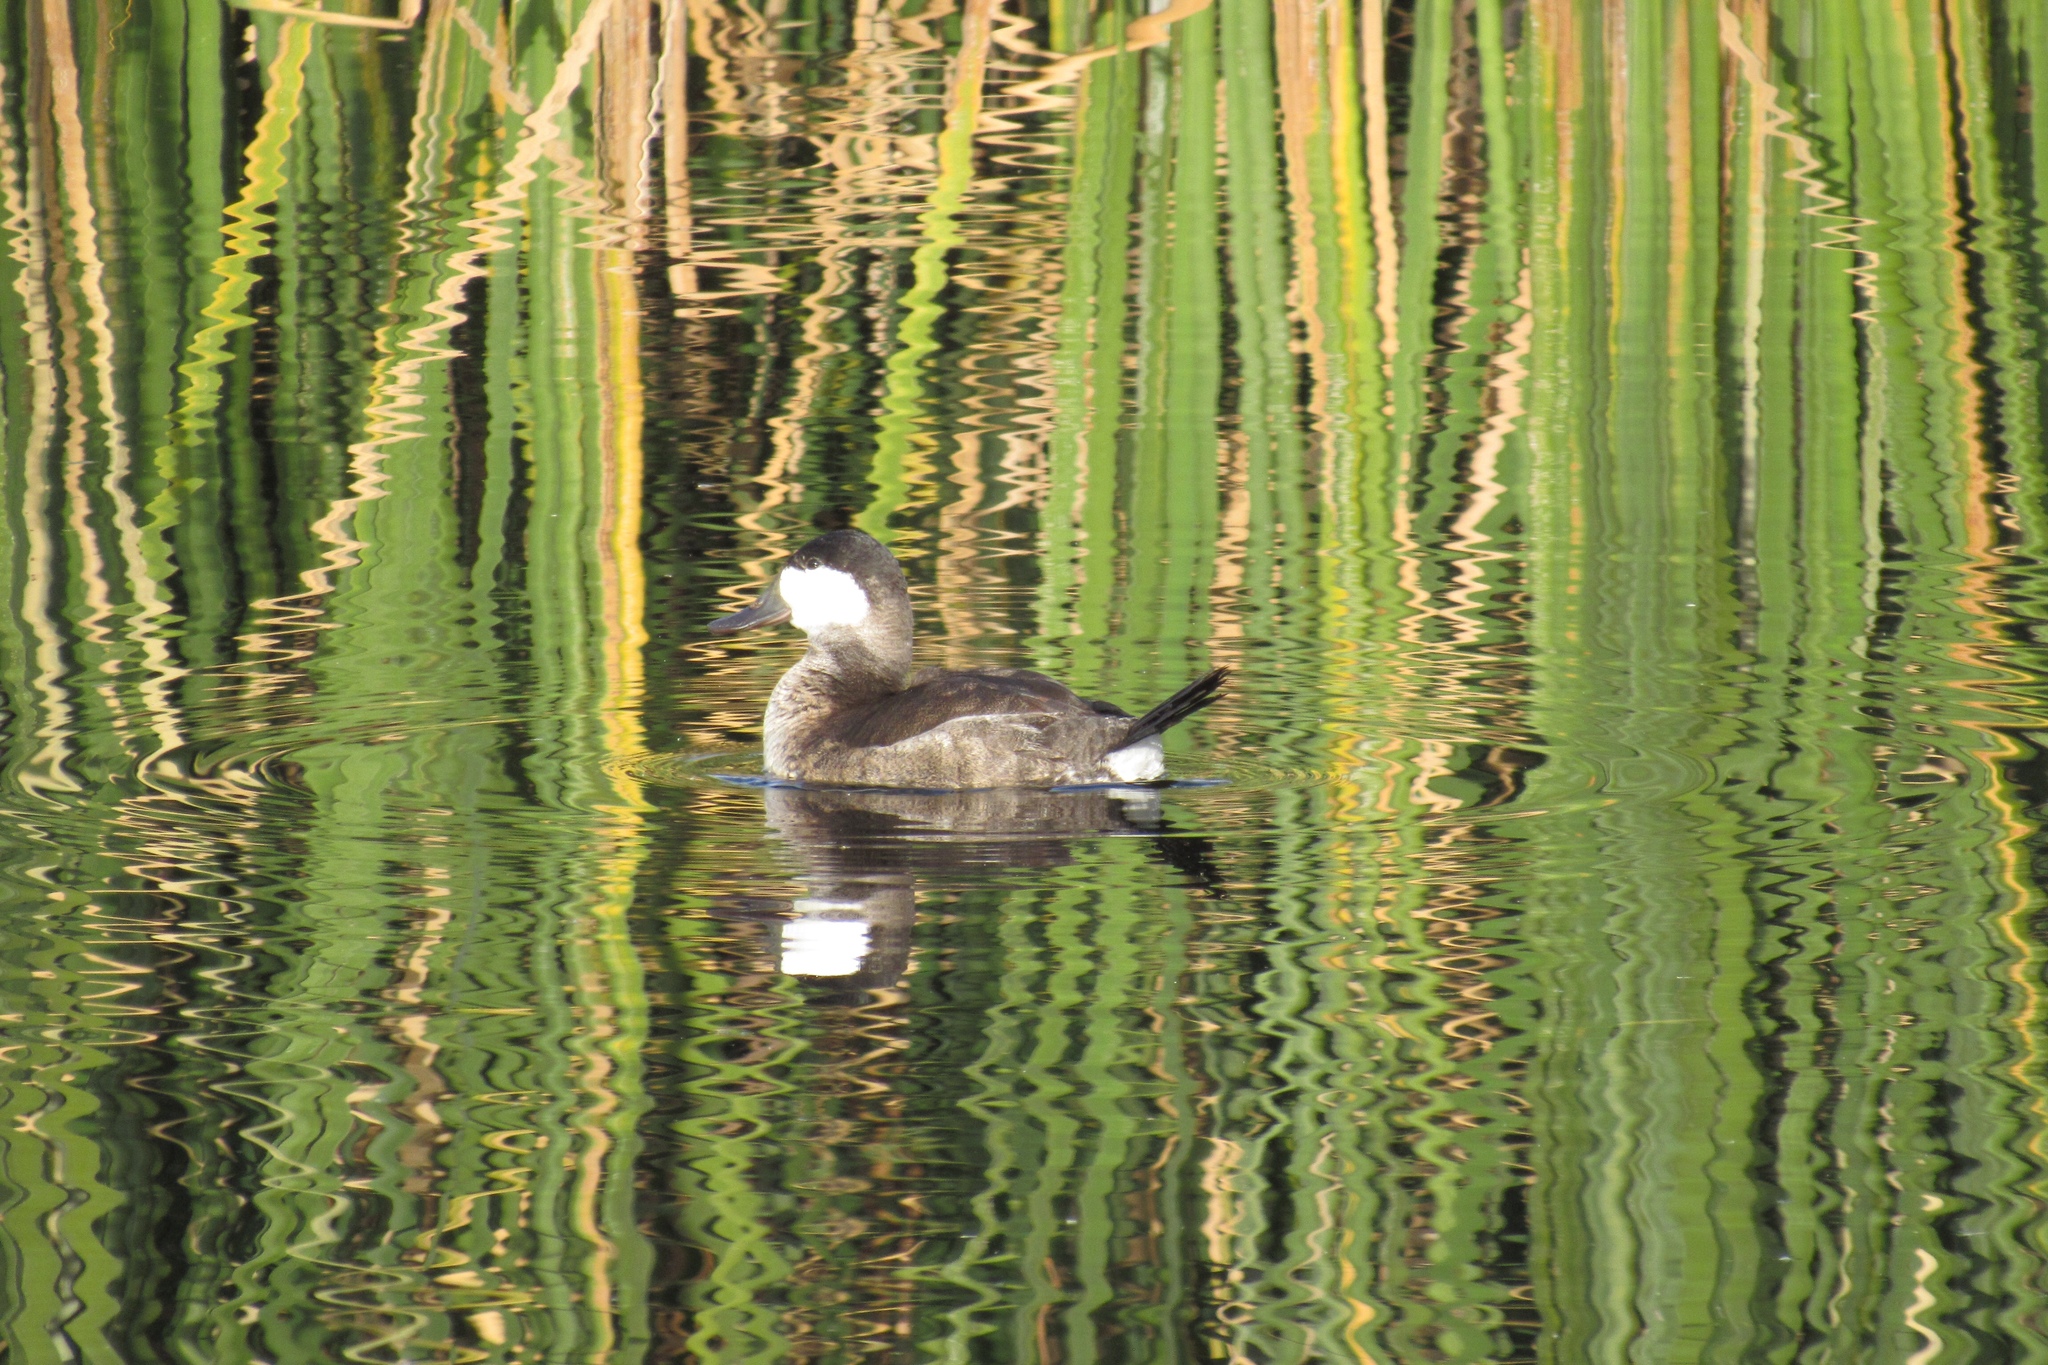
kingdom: Animalia
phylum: Chordata
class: Aves
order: Anseriformes
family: Anatidae
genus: Oxyura
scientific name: Oxyura jamaicensis
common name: Ruddy duck
